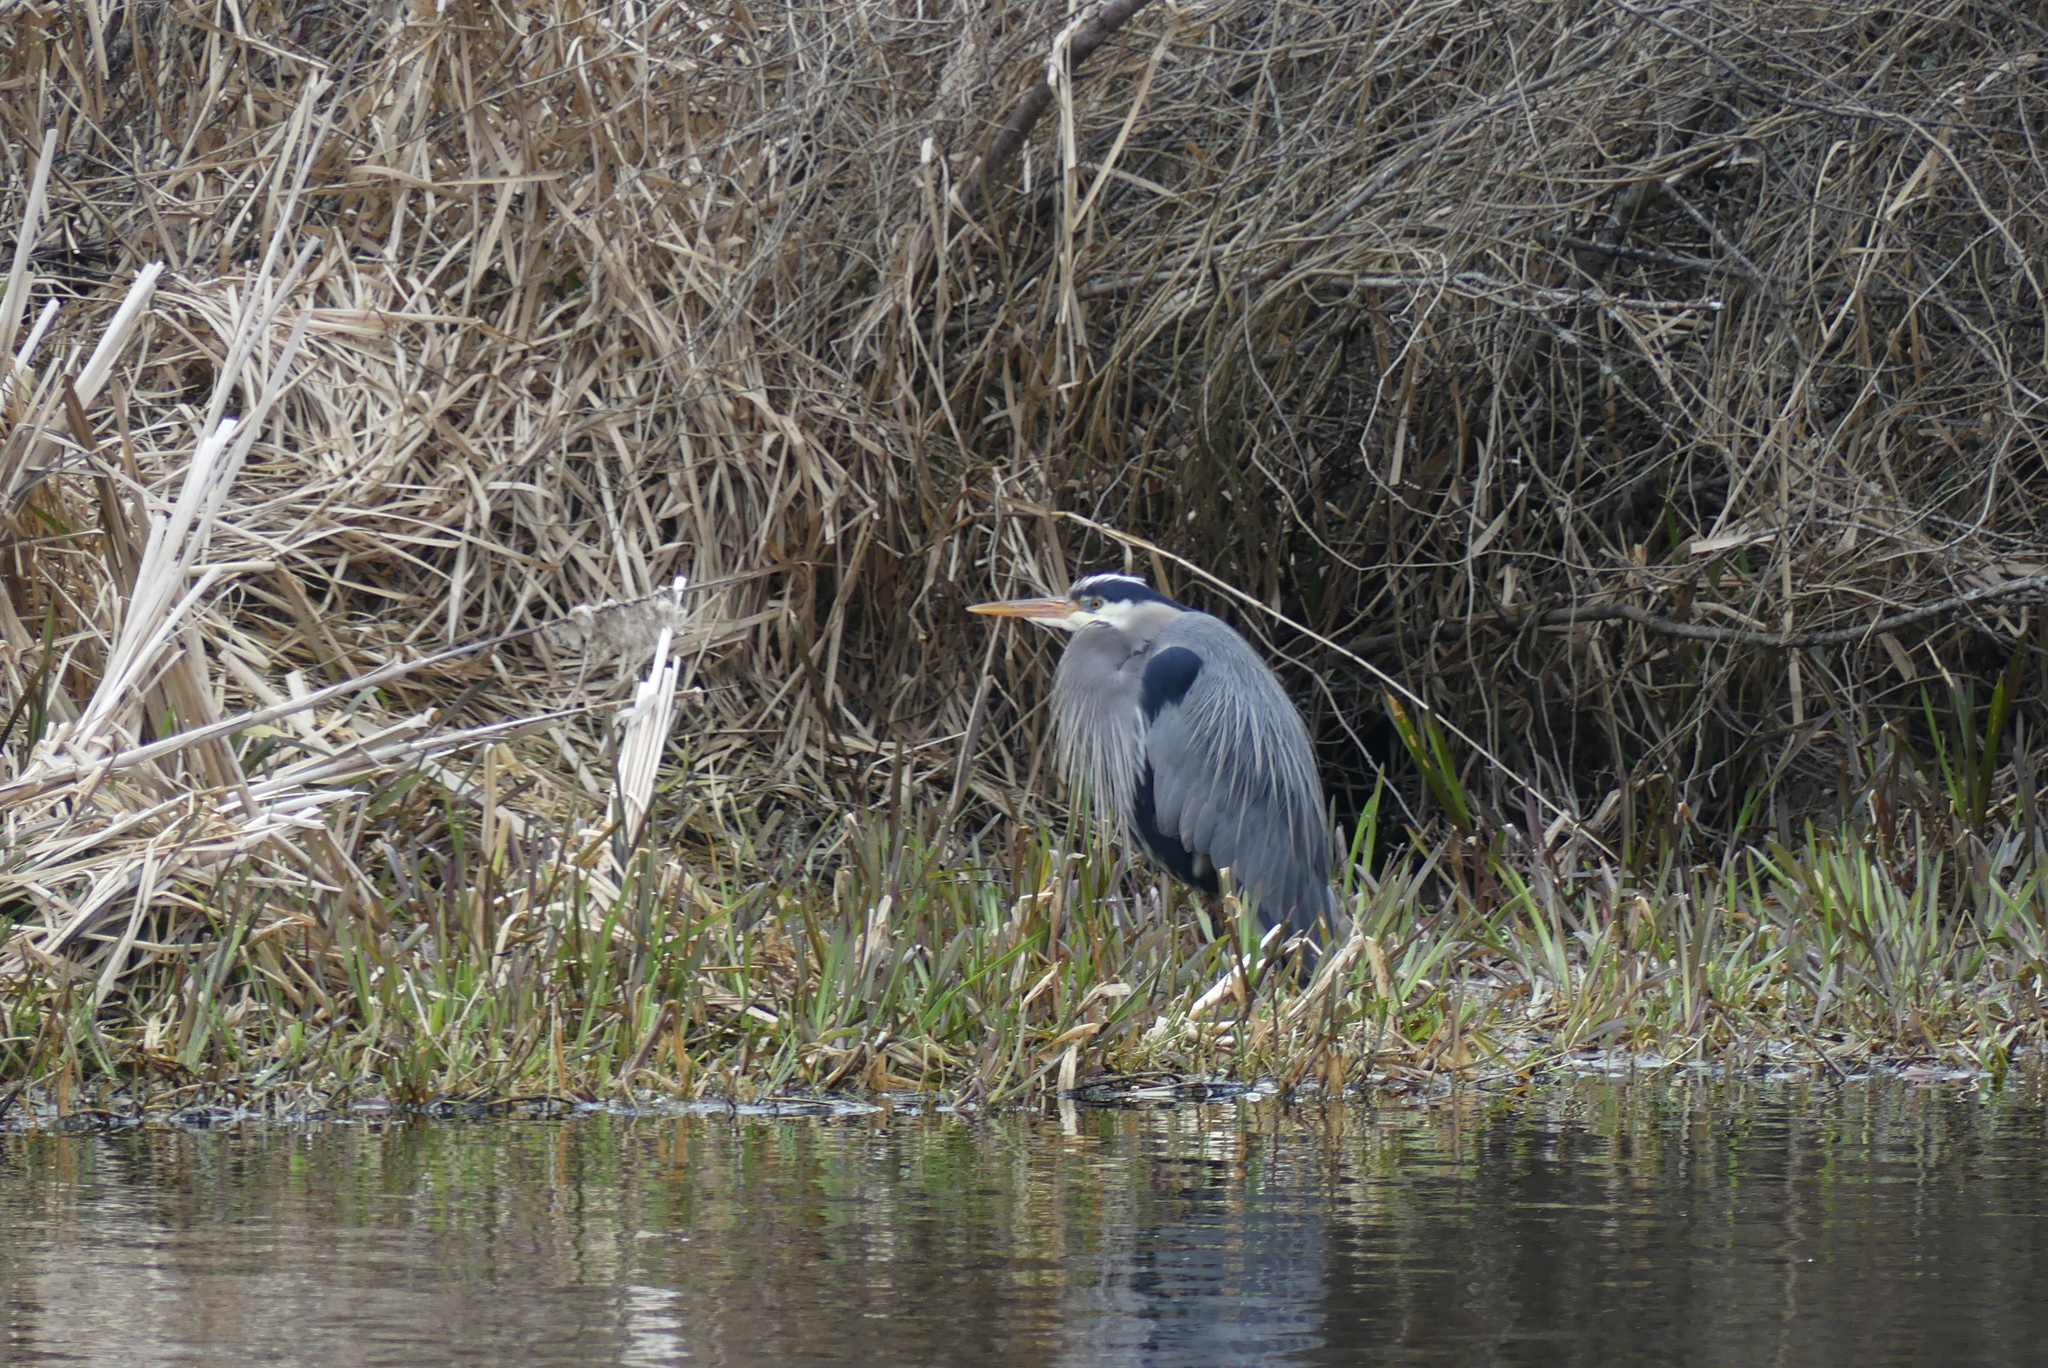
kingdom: Animalia
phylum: Chordata
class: Aves
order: Pelecaniformes
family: Ardeidae
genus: Ardea
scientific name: Ardea herodias
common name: Great blue heron
